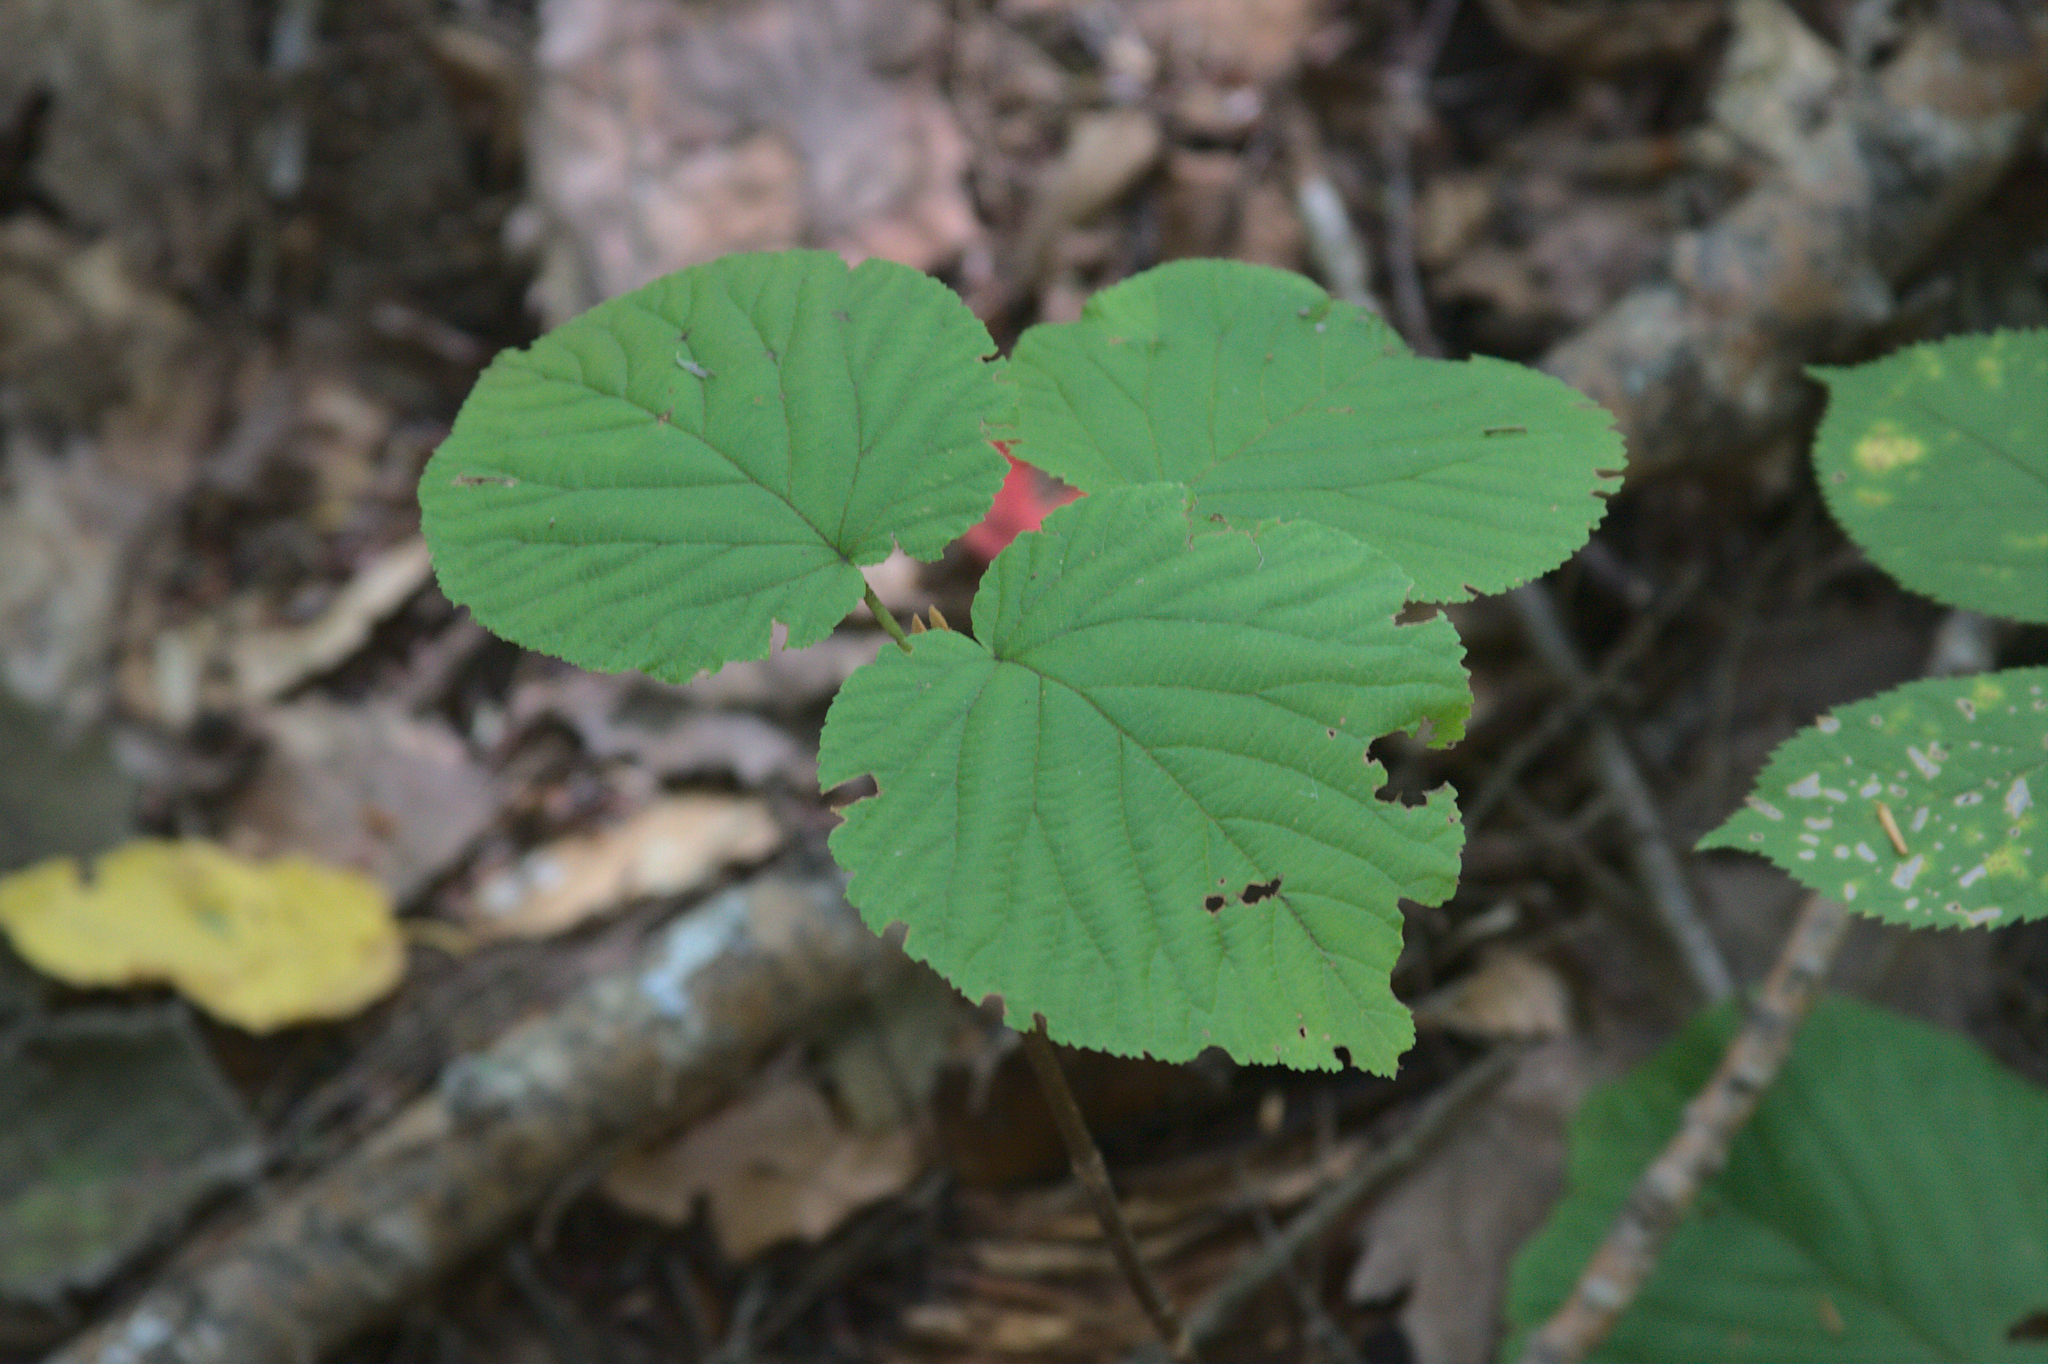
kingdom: Plantae
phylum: Tracheophyta
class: Magnoliopsida
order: Dipsacales
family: Viburnaceae
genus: Viburnum
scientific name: Viburnum lantanoides
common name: Hobblebush
